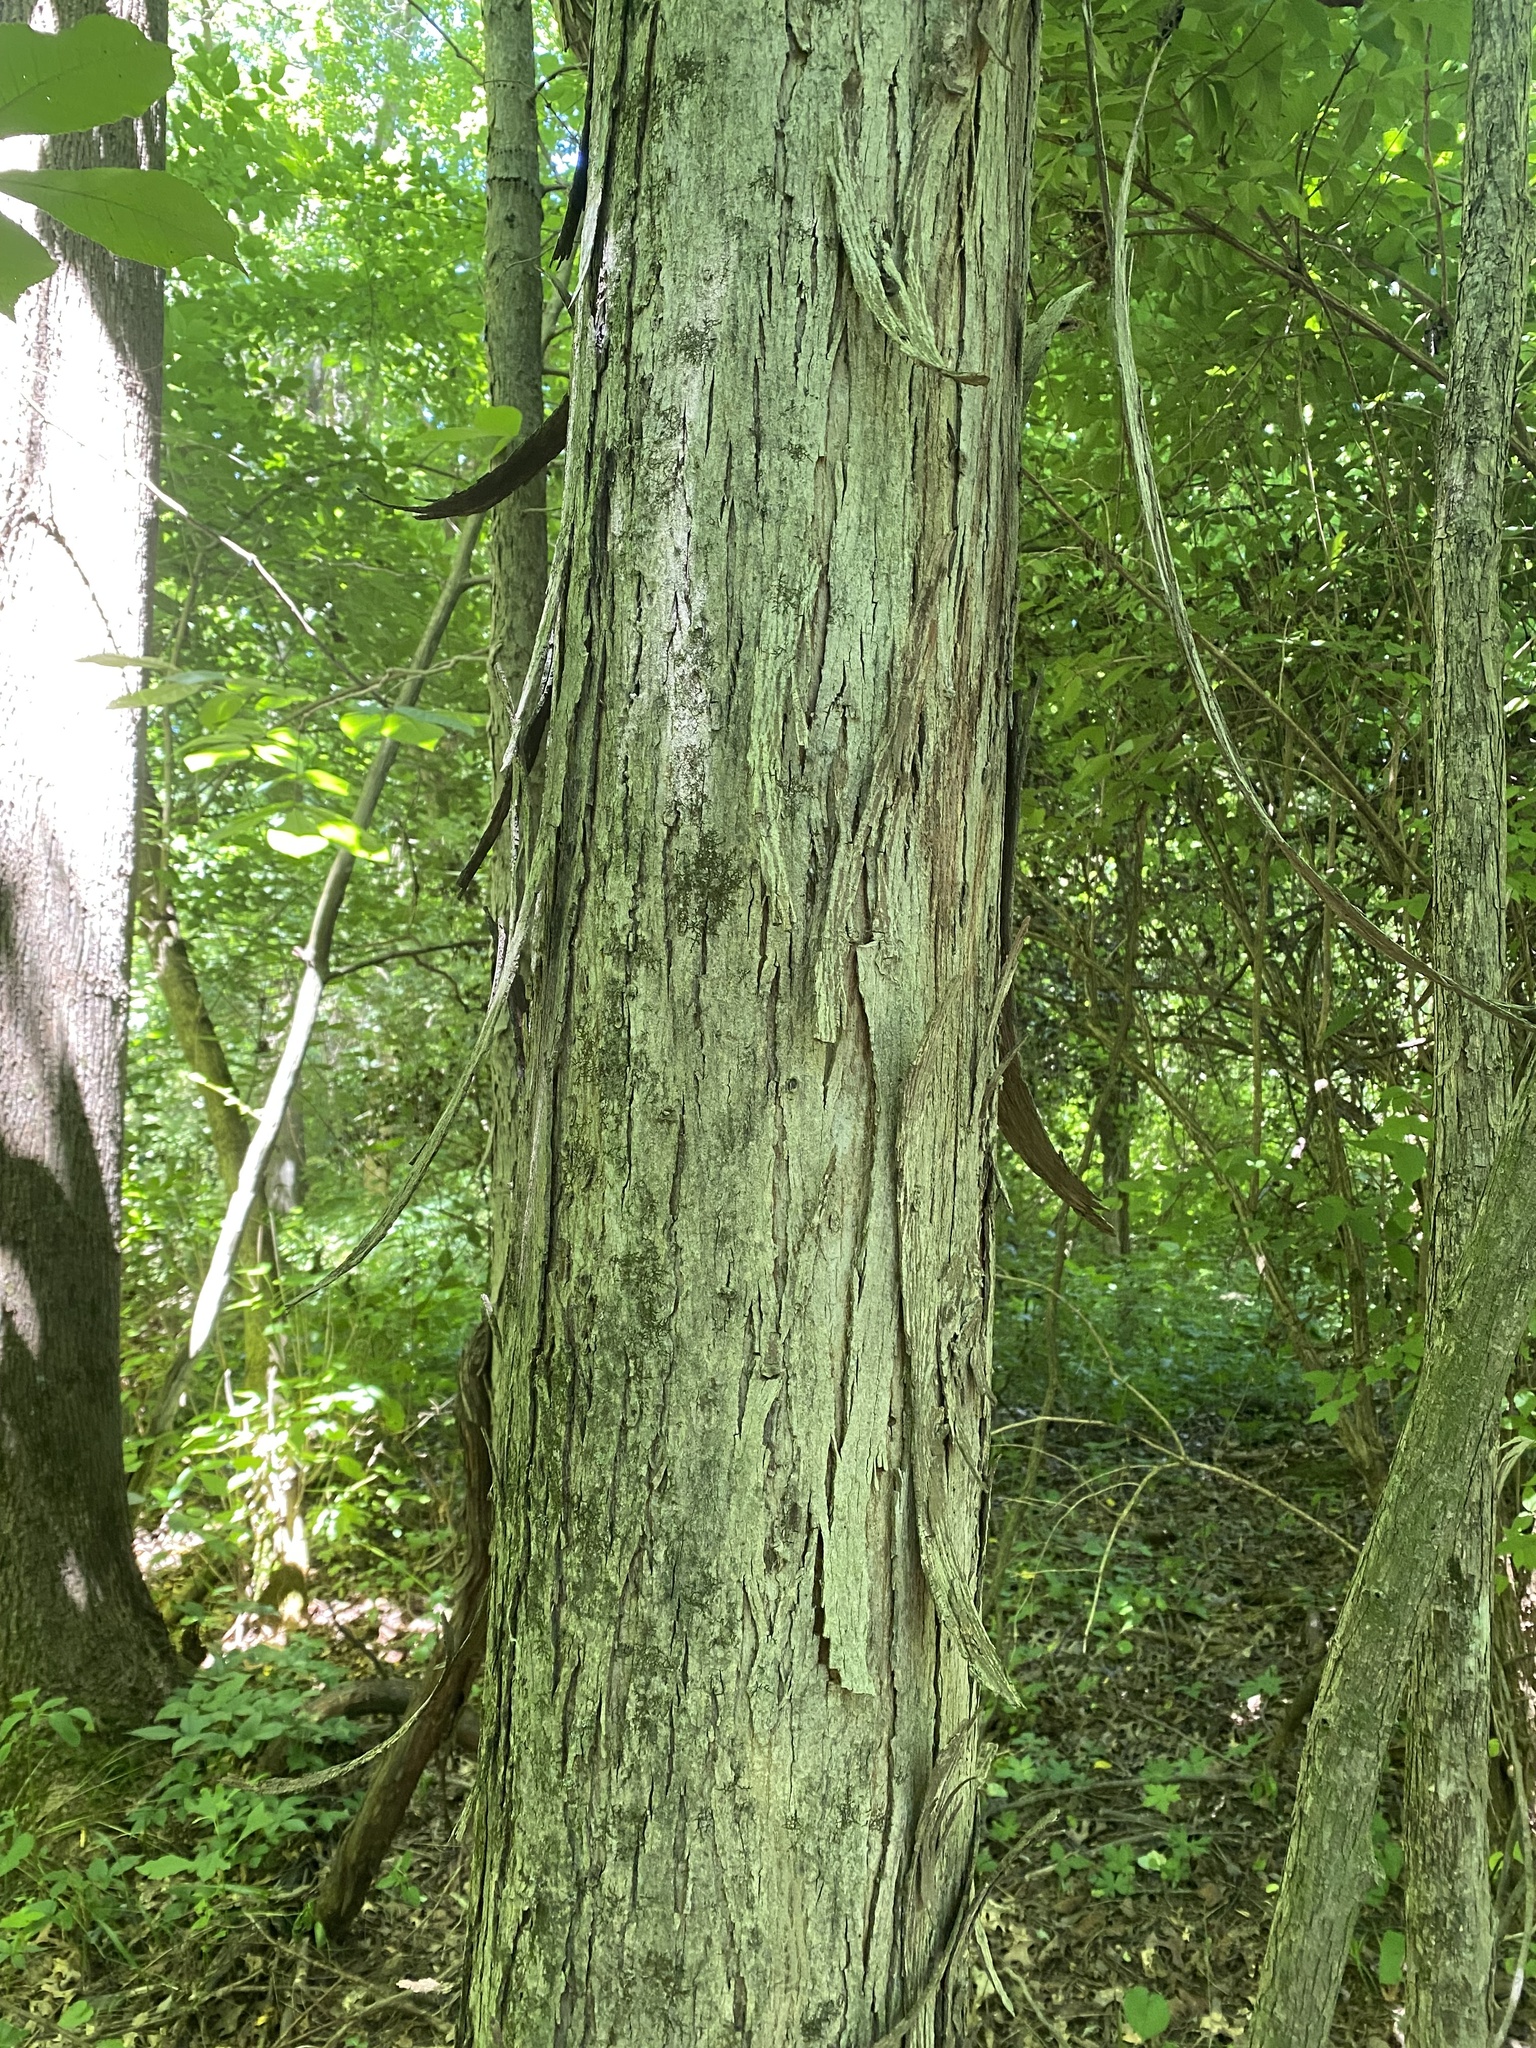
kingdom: Plantae
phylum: Tracheophyta
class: Magnoliopsida
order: Fagales
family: Juglandaceae
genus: Carya
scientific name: Carya laciniosa
